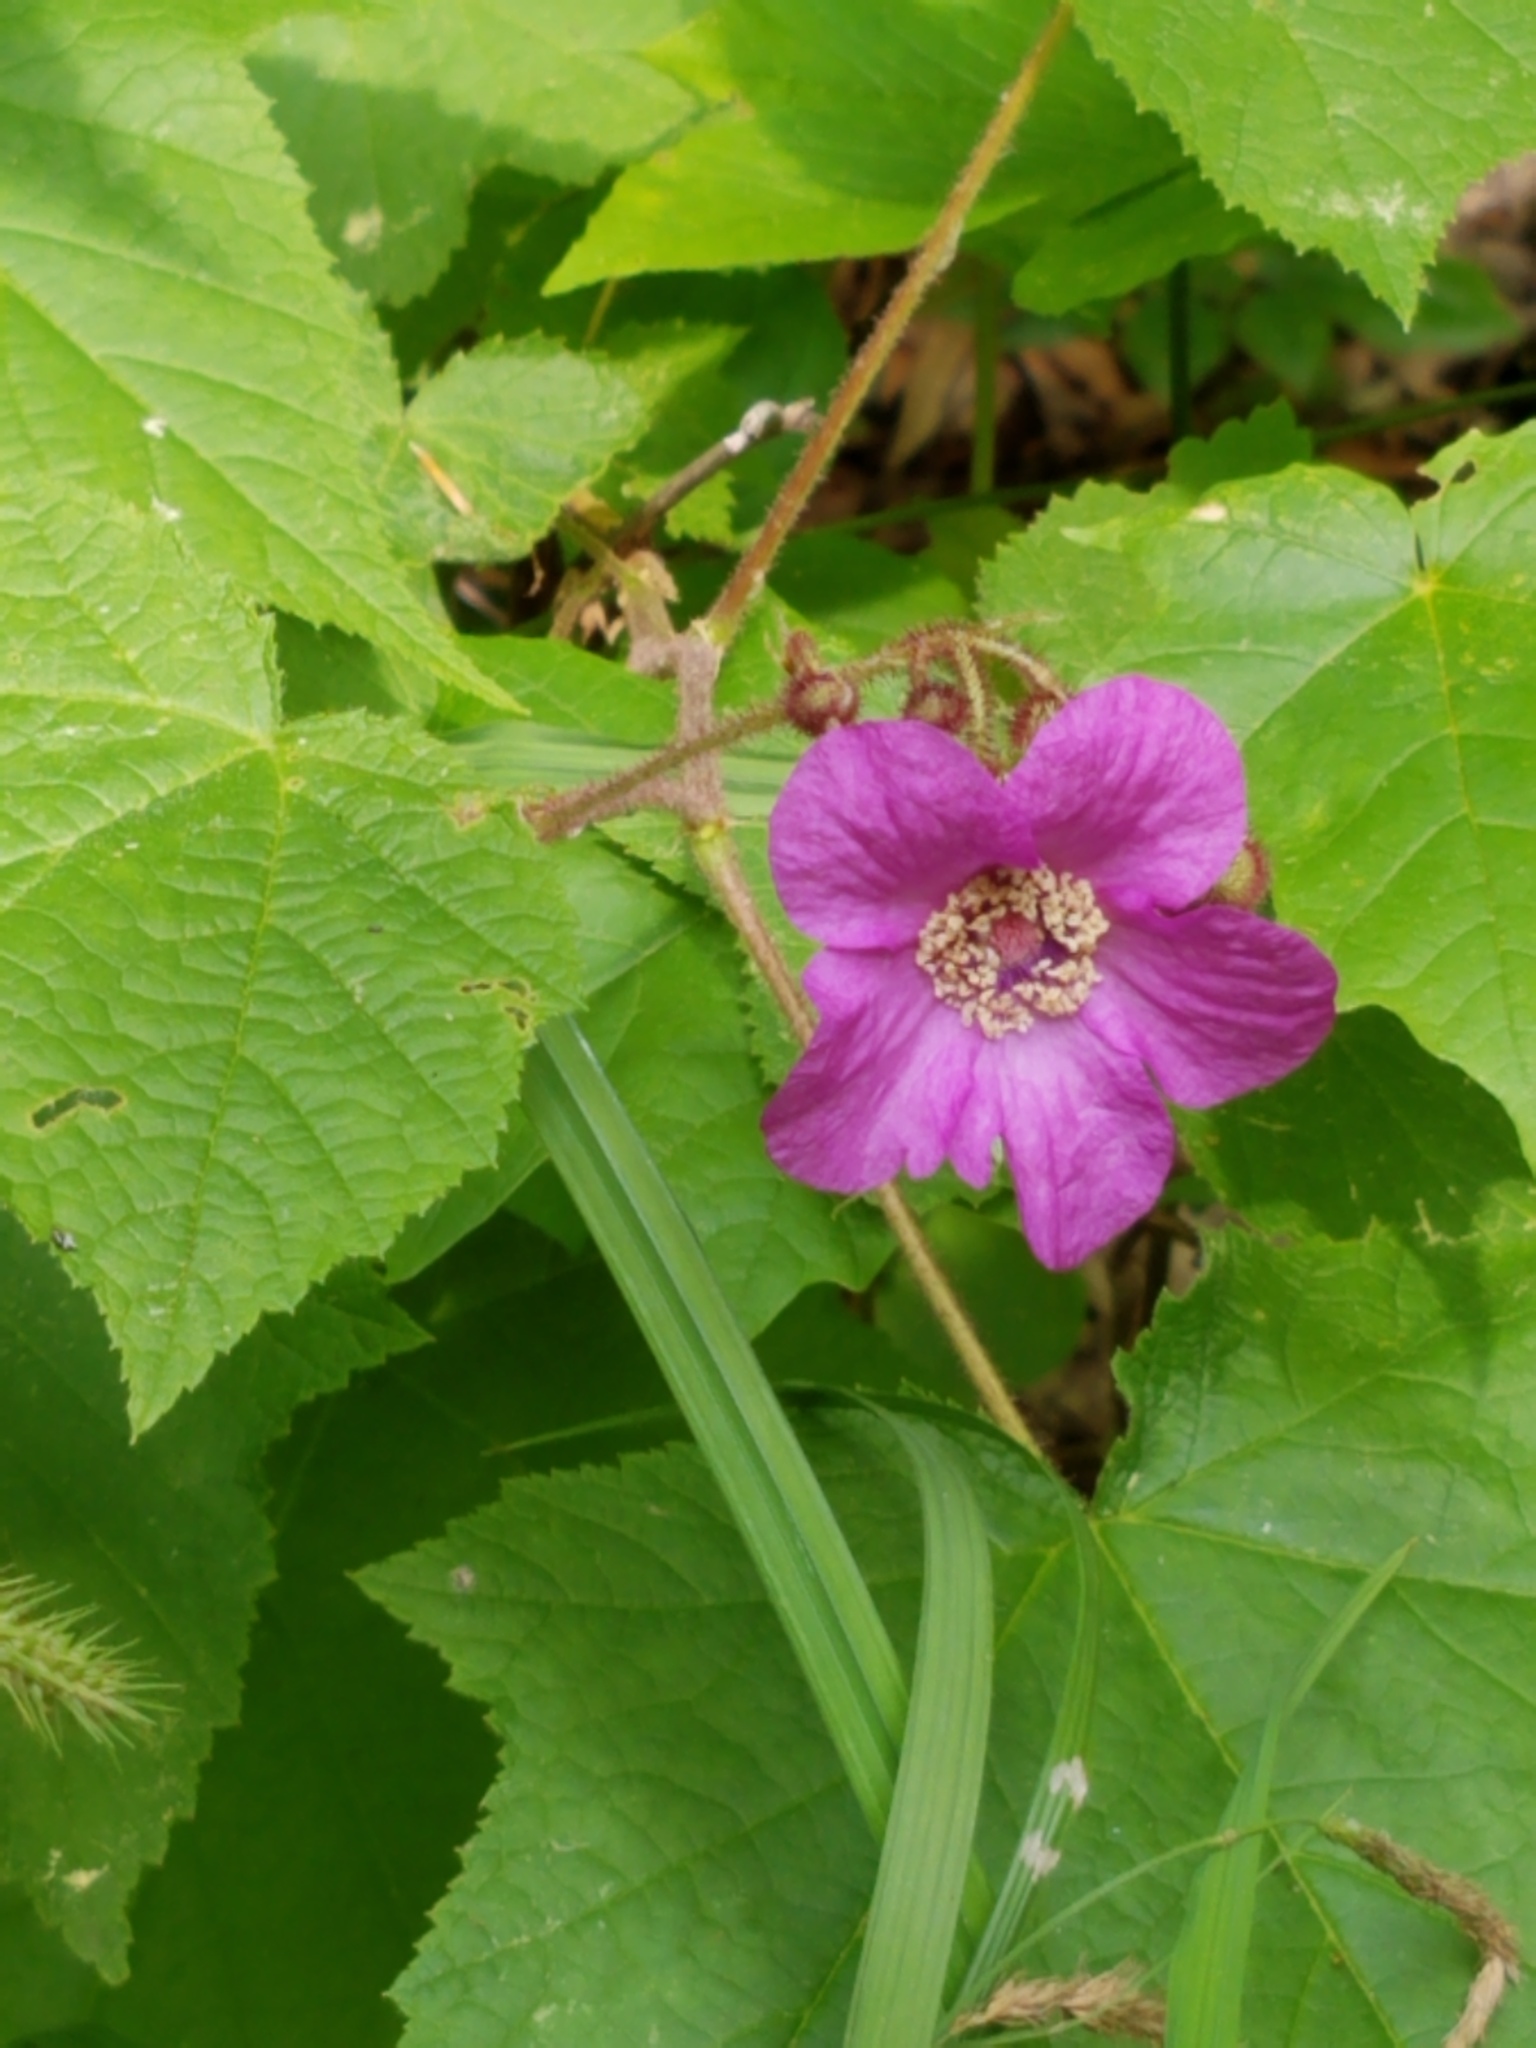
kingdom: Plantae
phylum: Tracheophyta
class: Magnoliopsida
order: Rosales
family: Rosaceae
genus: Rubus
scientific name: Rubus odoratus
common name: Purple-flowered raspberry
